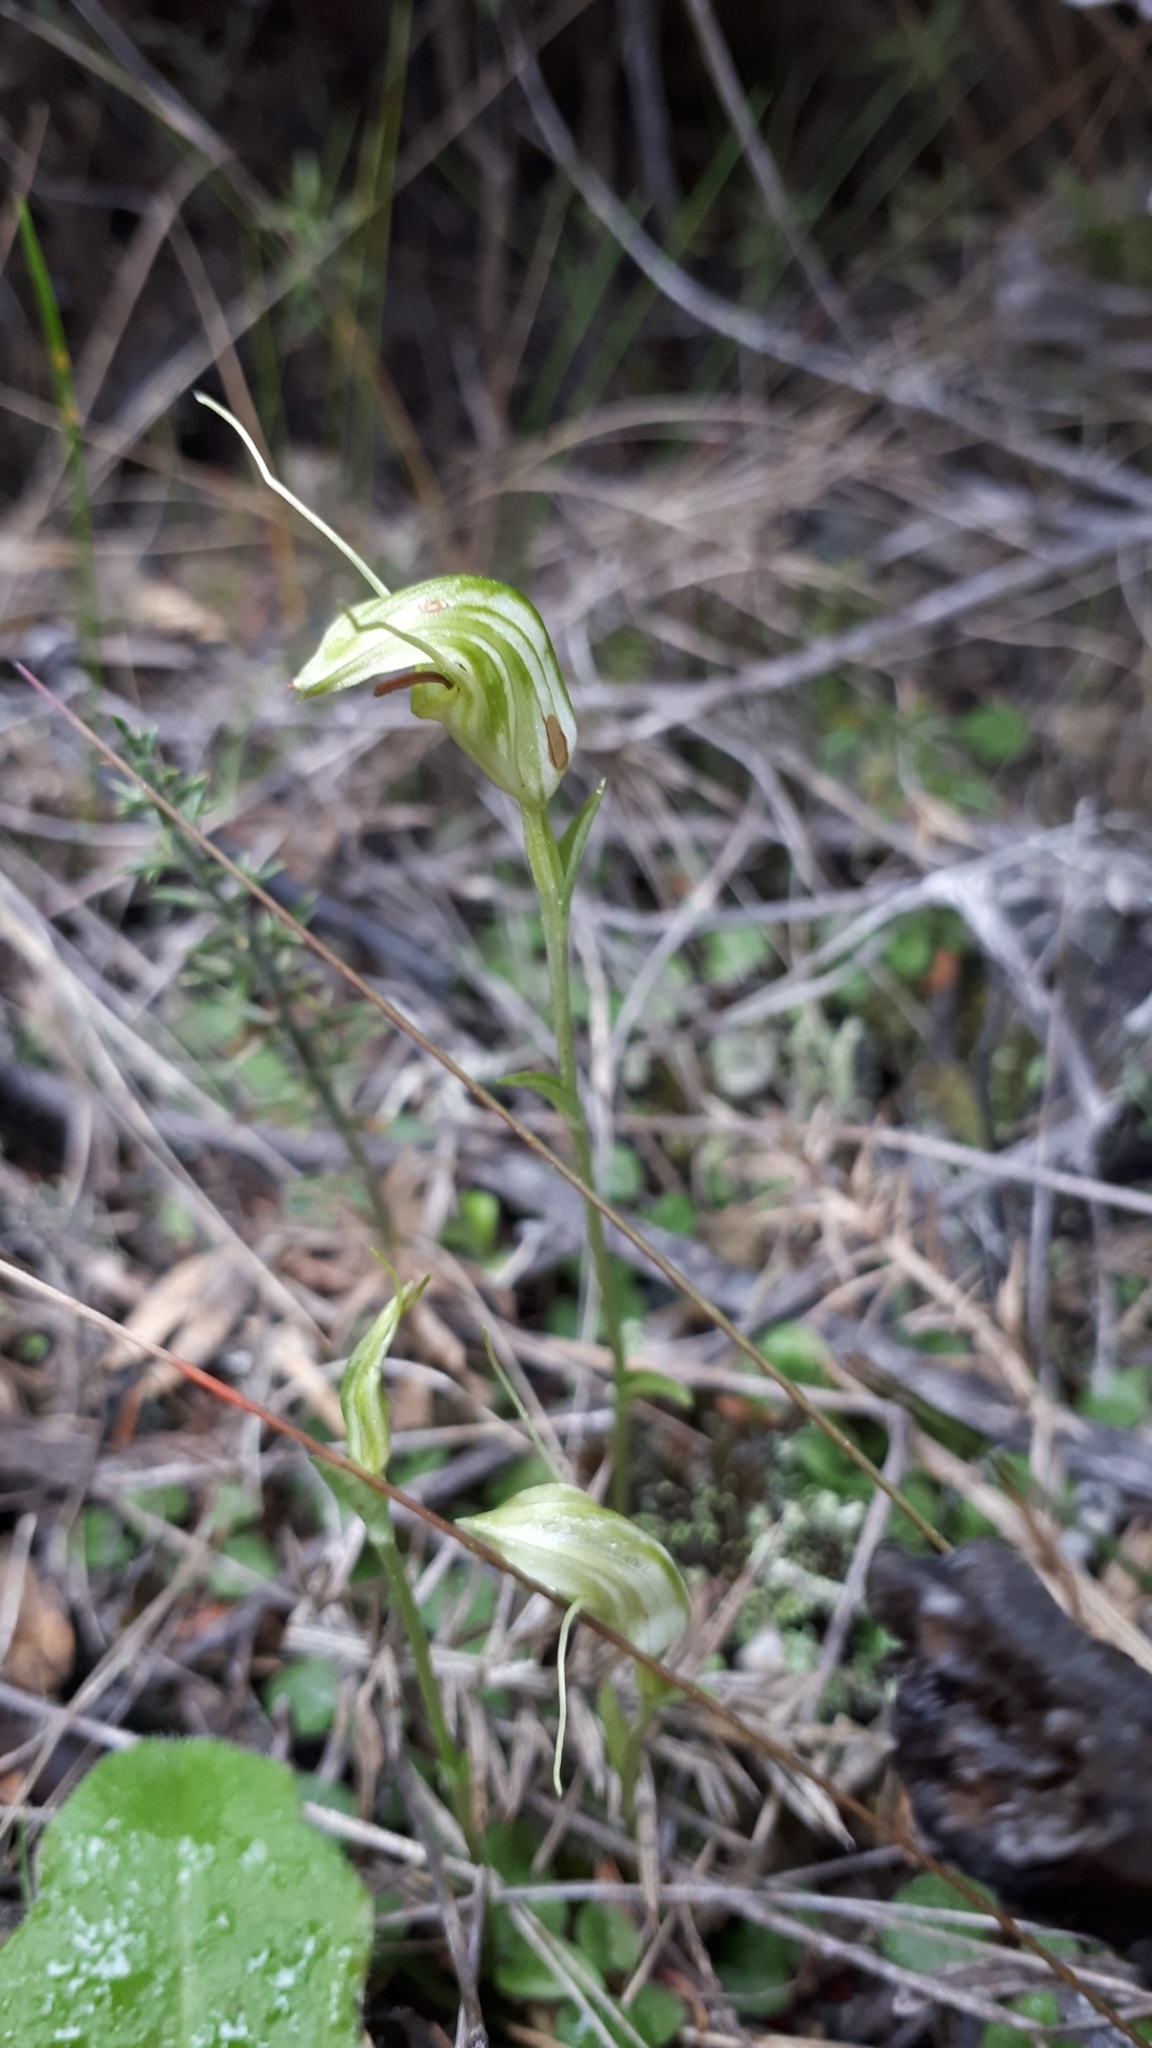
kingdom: Plantae
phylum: Tracheophyta
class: Liliopsida
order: Asparagales
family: Orchidaceae
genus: Pterostylis
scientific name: Pterostylis trullifolia
